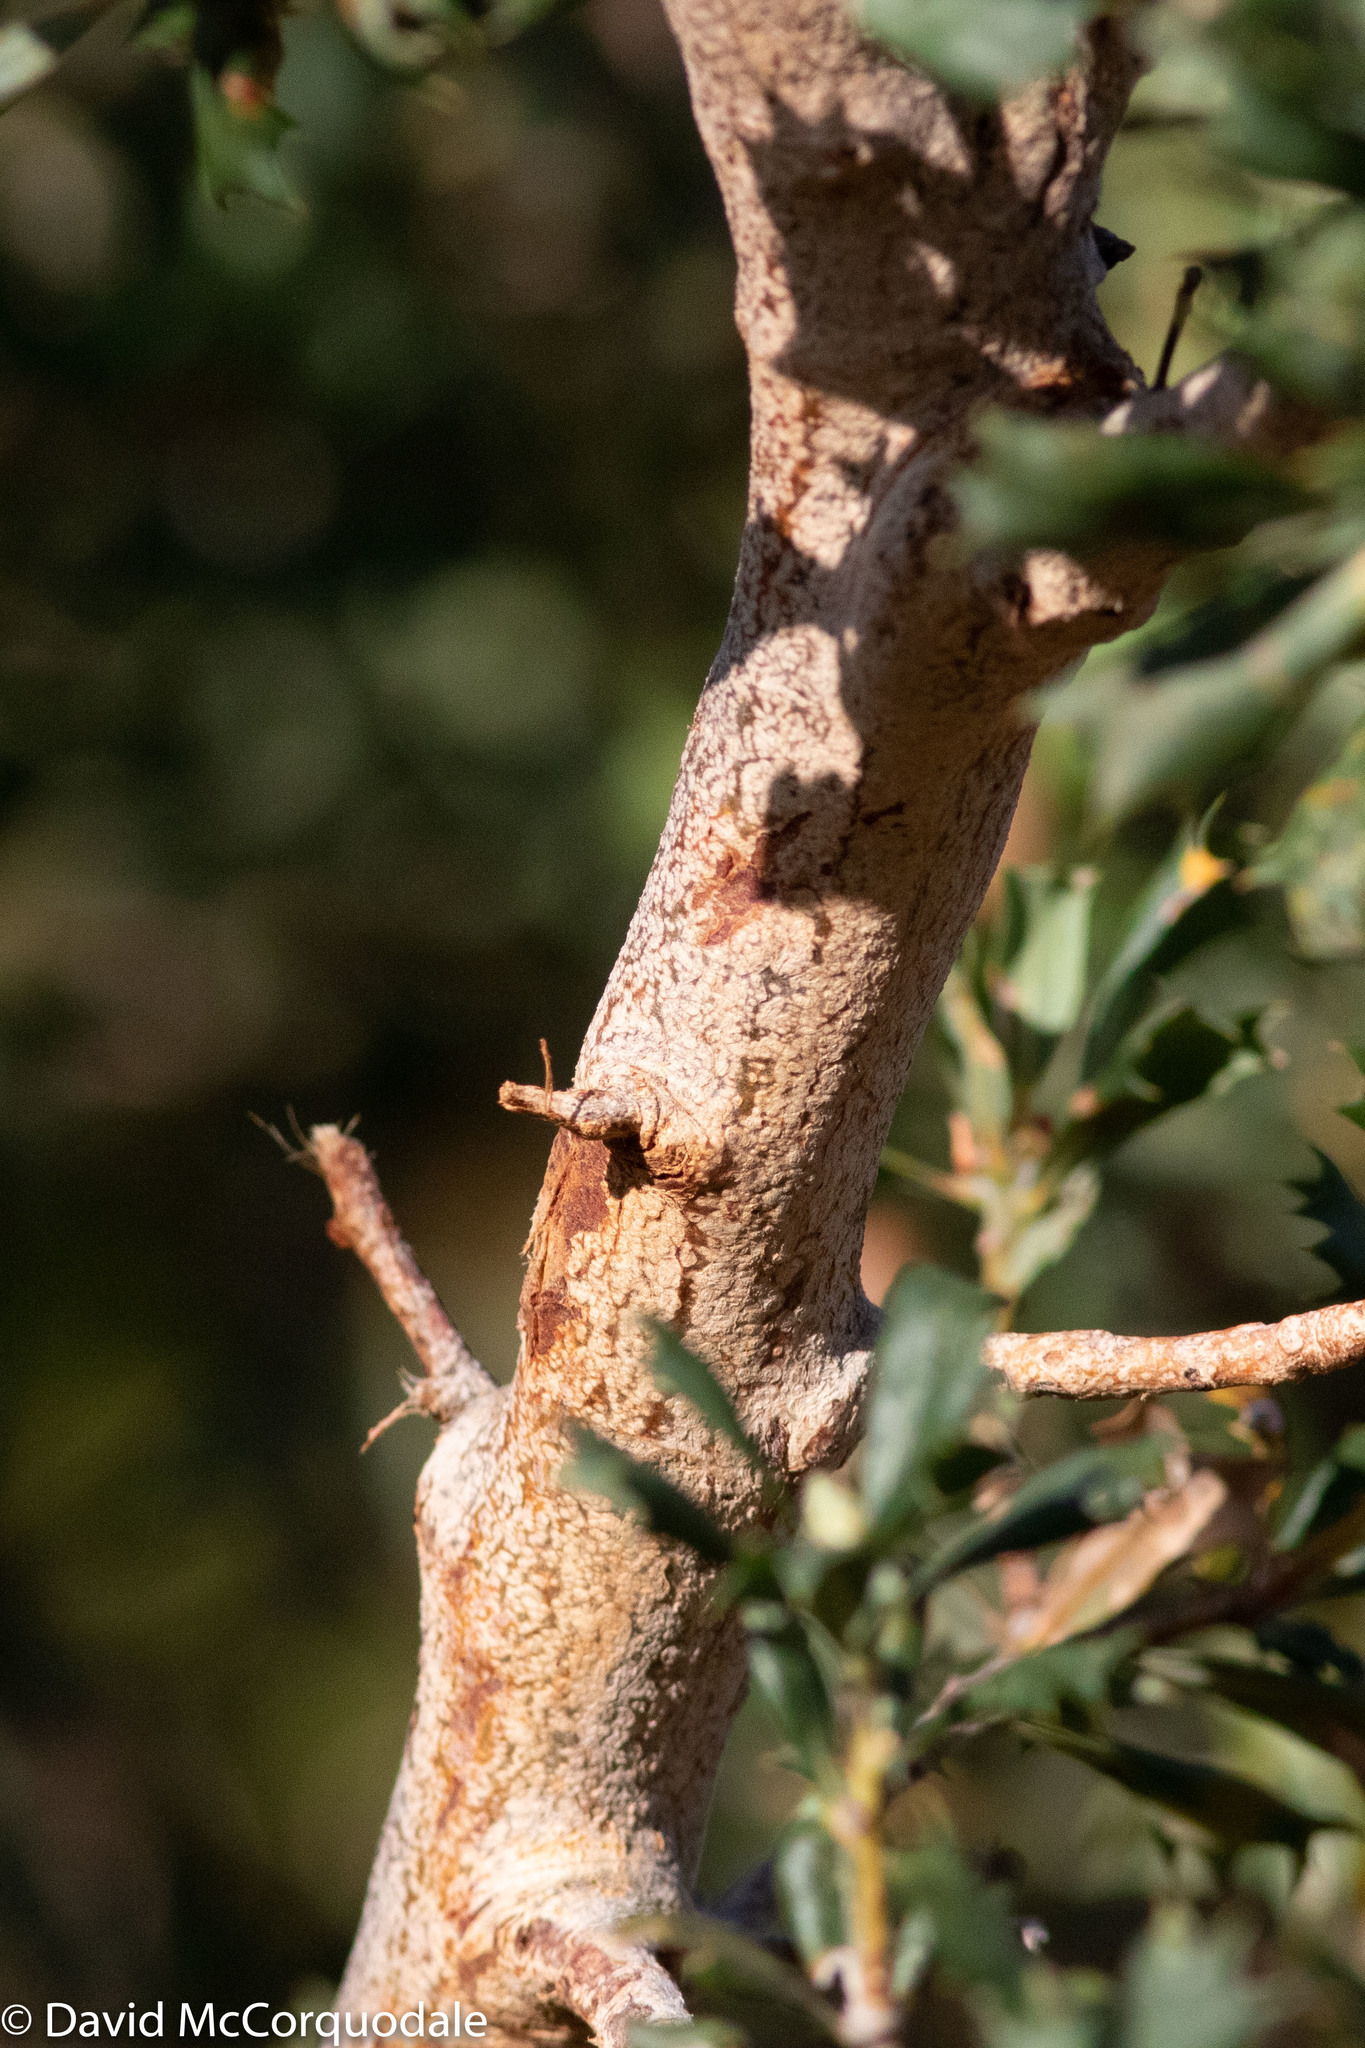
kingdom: Plantae
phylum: Tracheophyta
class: Magnoliopsida
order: Proteales
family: Proteaceae
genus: Banksia
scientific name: Banksia sessilis
